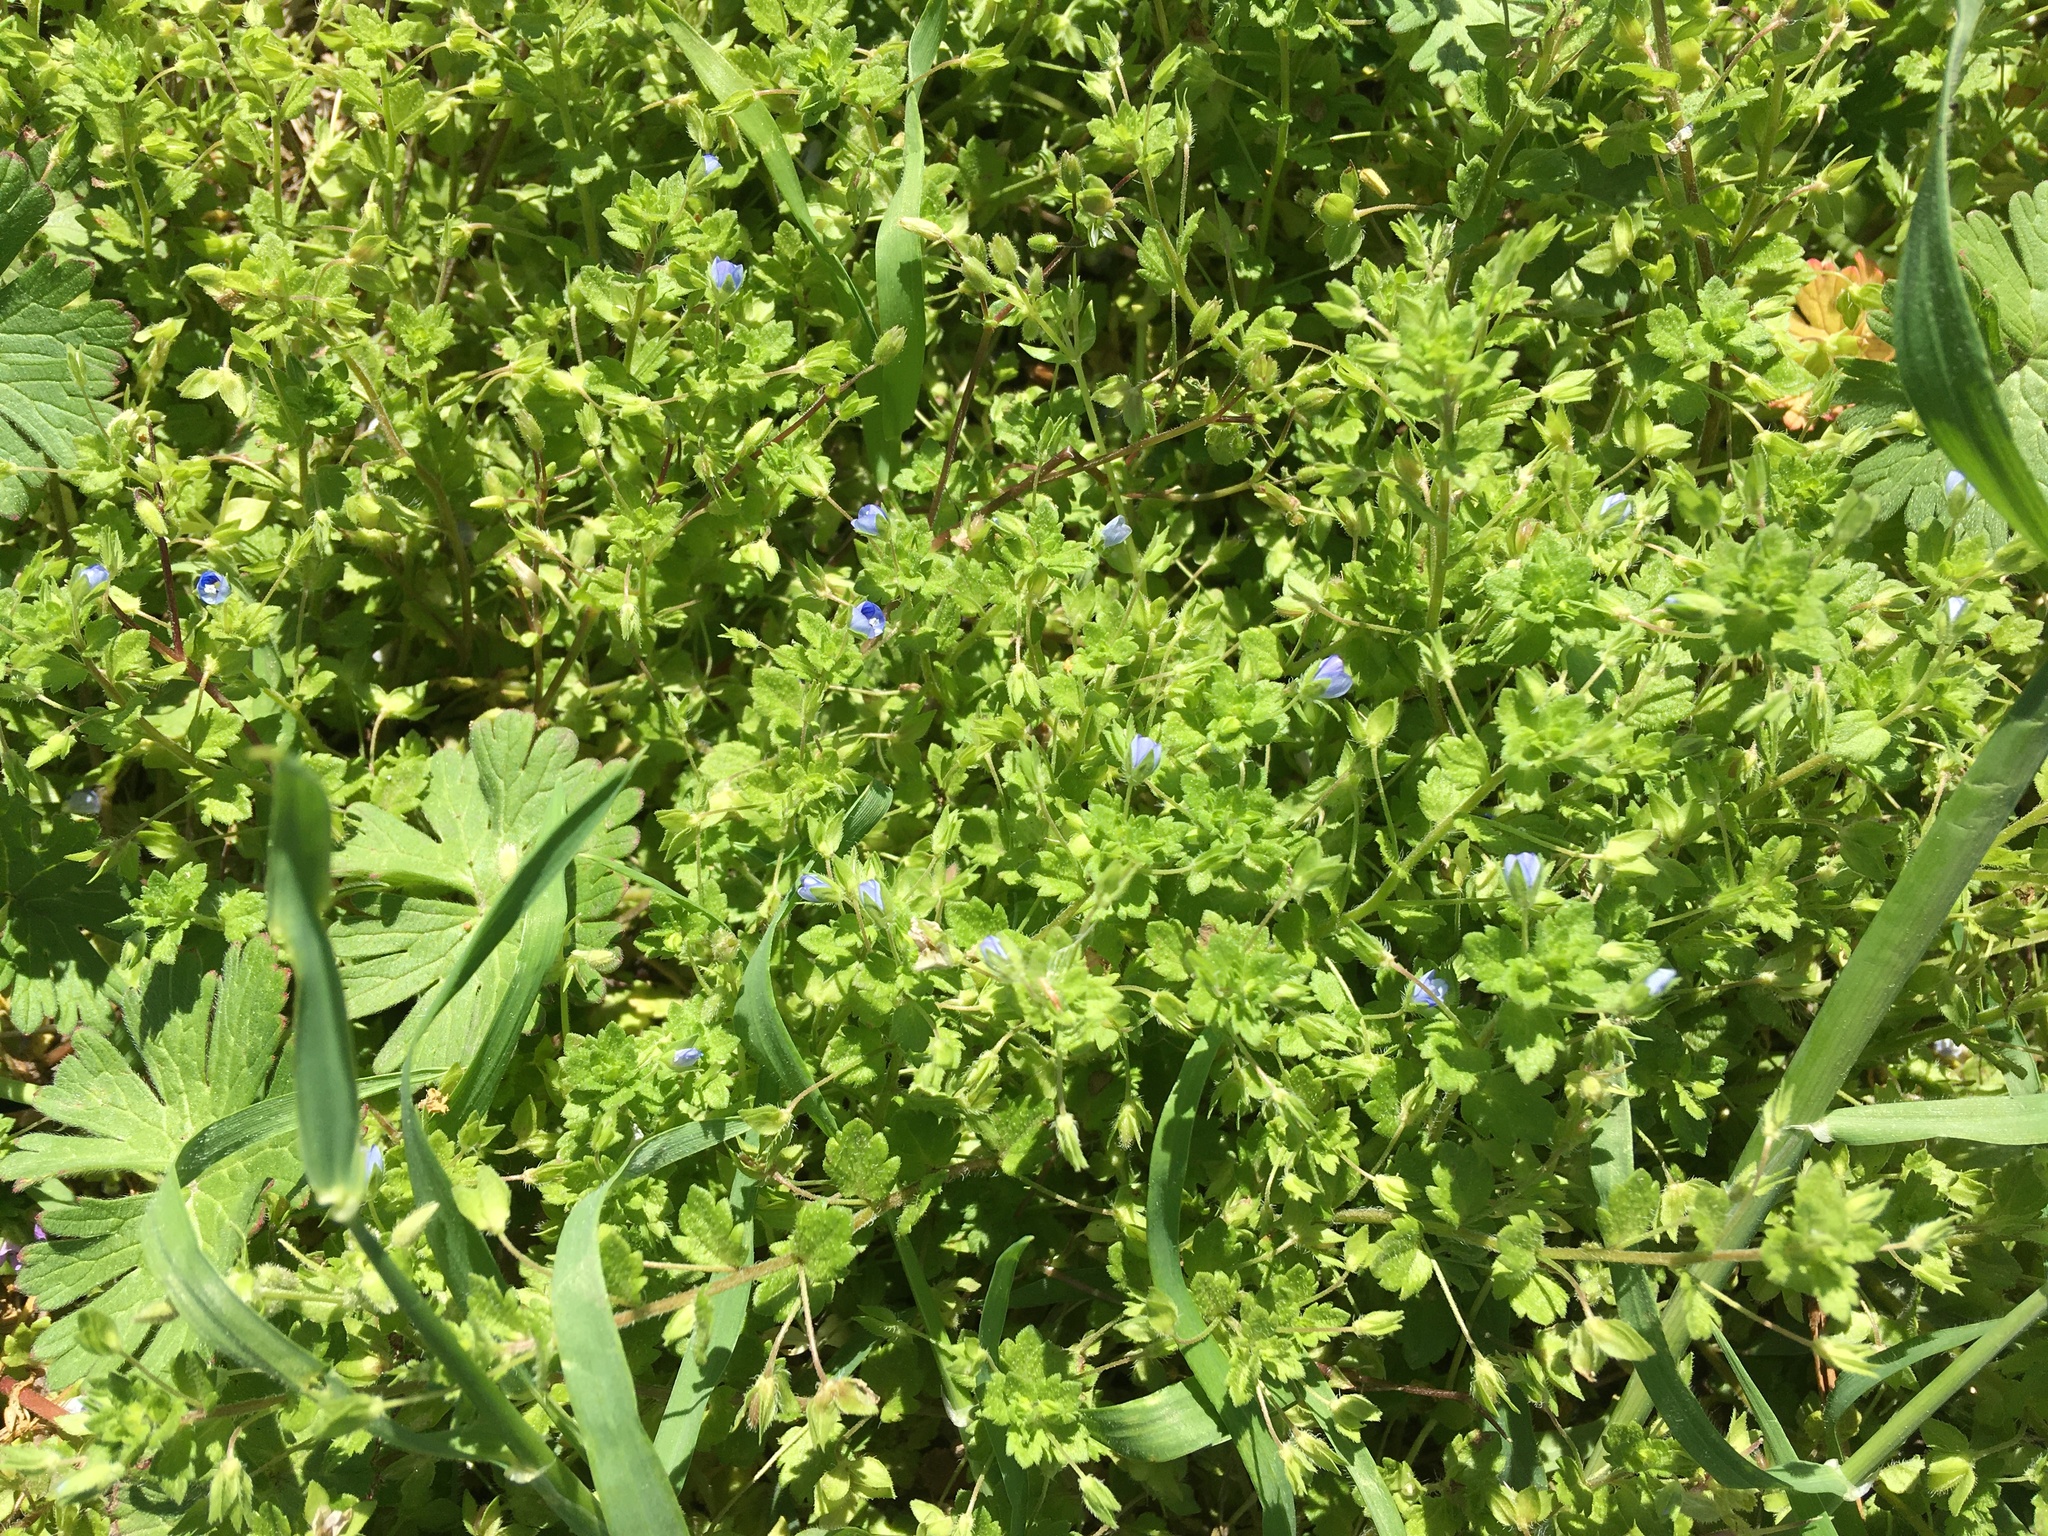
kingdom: Plantae
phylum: Tracheophyta
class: Magnoliopsida
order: Lamiales
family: Plantaginaceae
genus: Veronica
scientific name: Veronica persica
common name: Common field-speedwell
